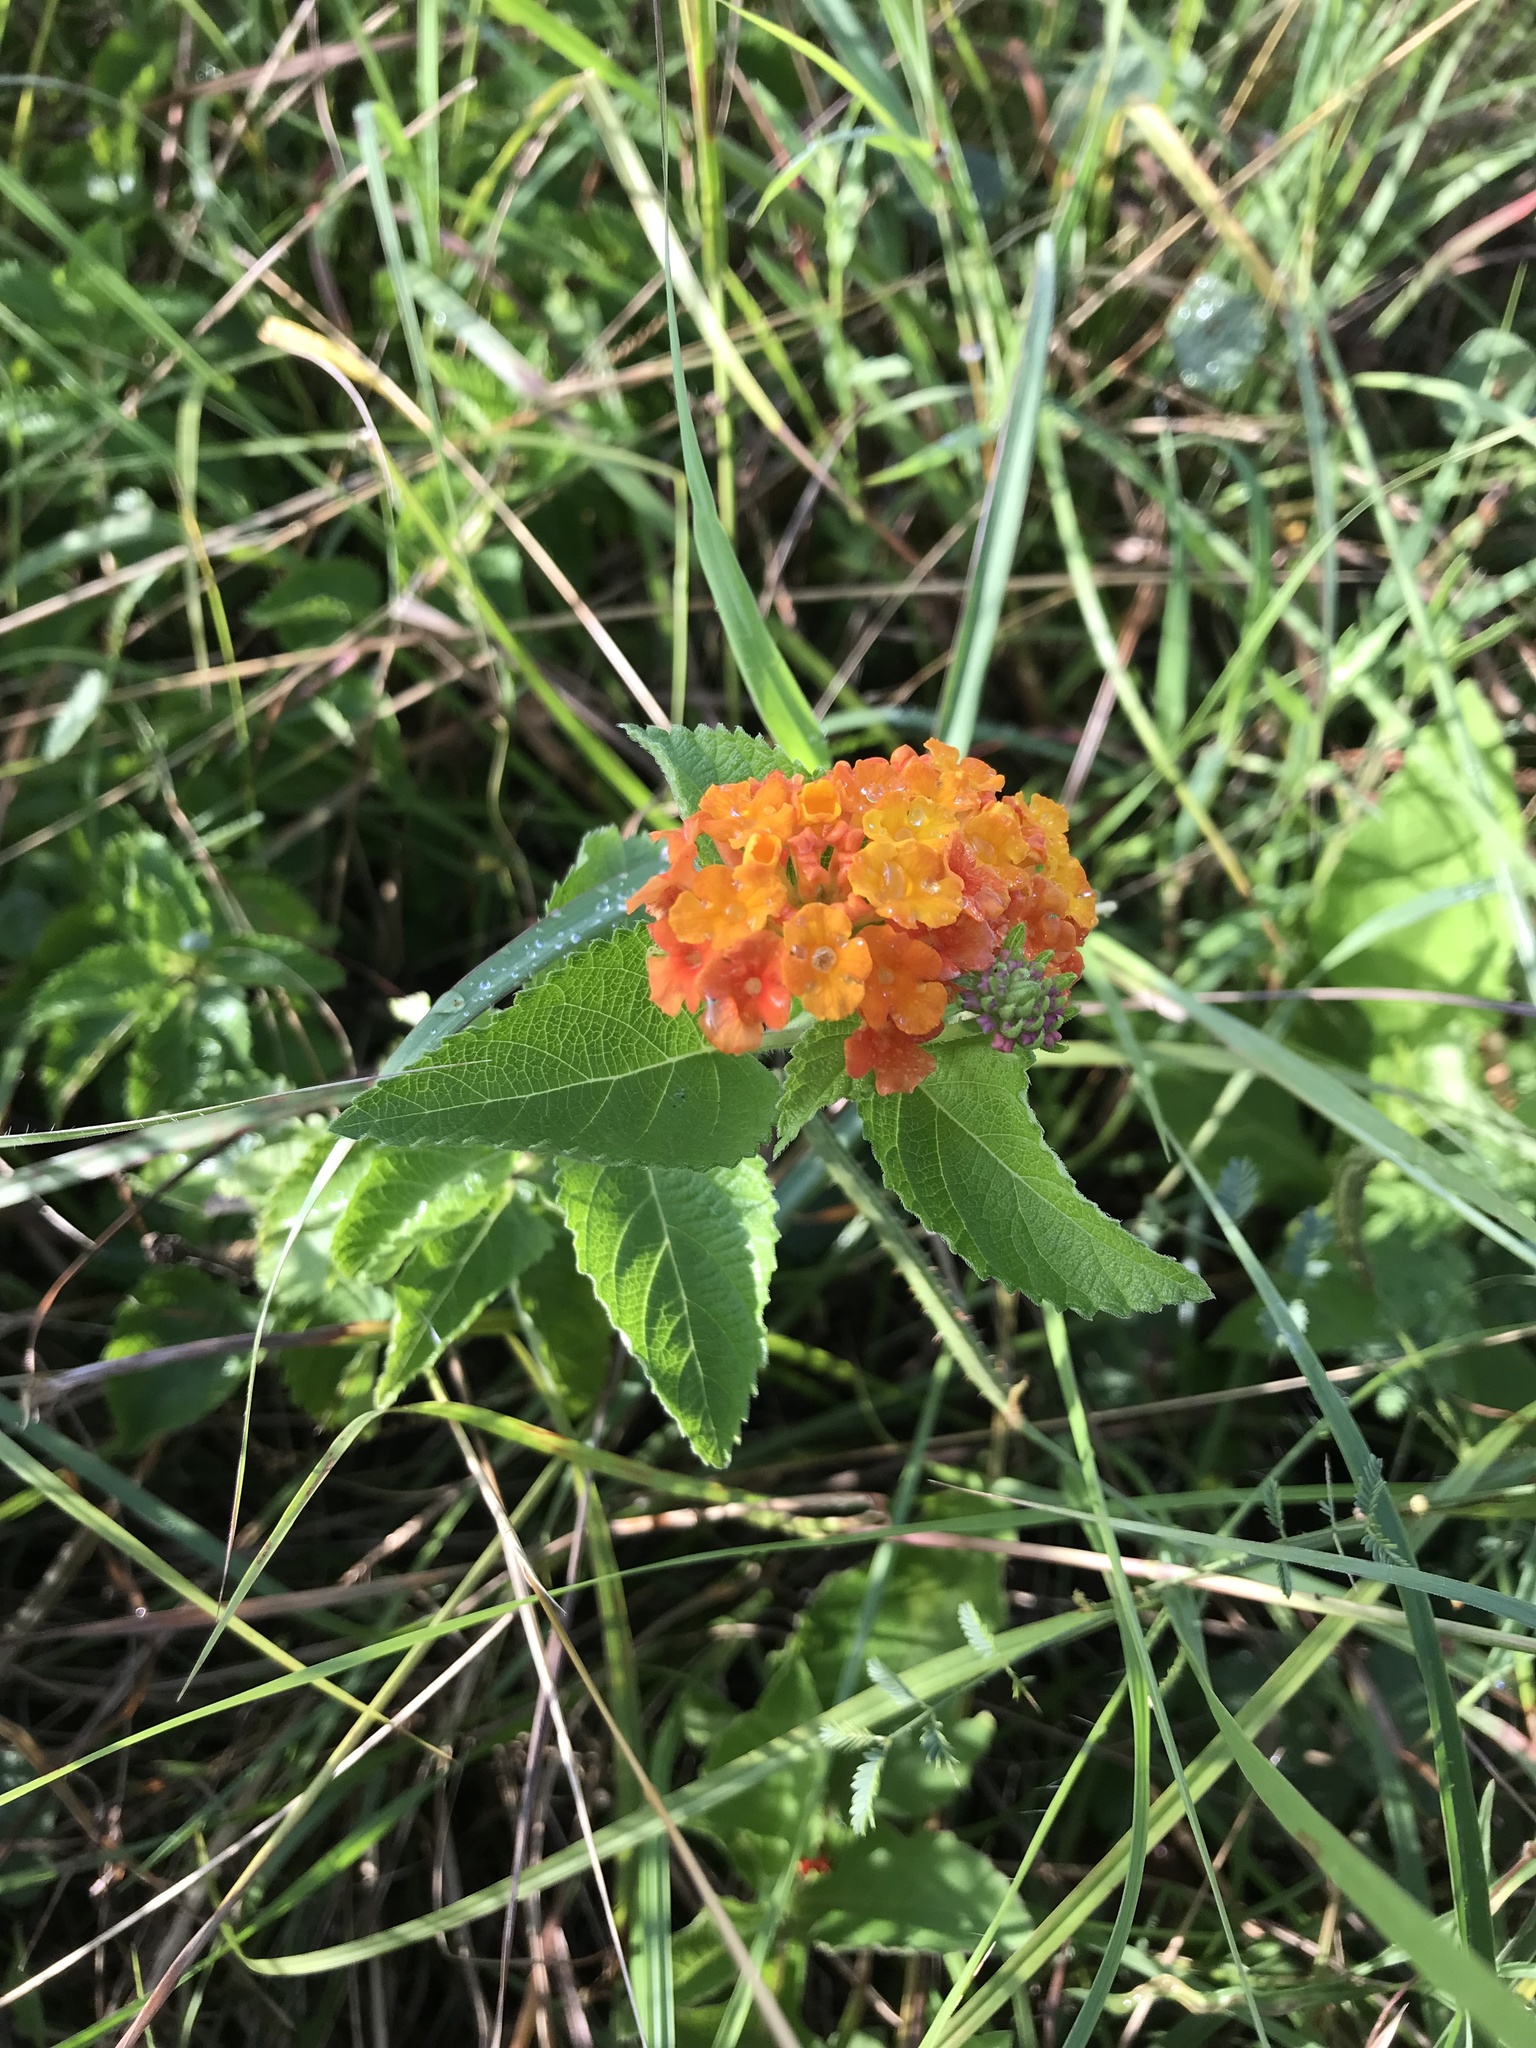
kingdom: Plantae
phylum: Tracheophyta
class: Magnoliopsida
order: Lamiales
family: Verbenaceae
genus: Lantana
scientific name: Lantana urticoides
